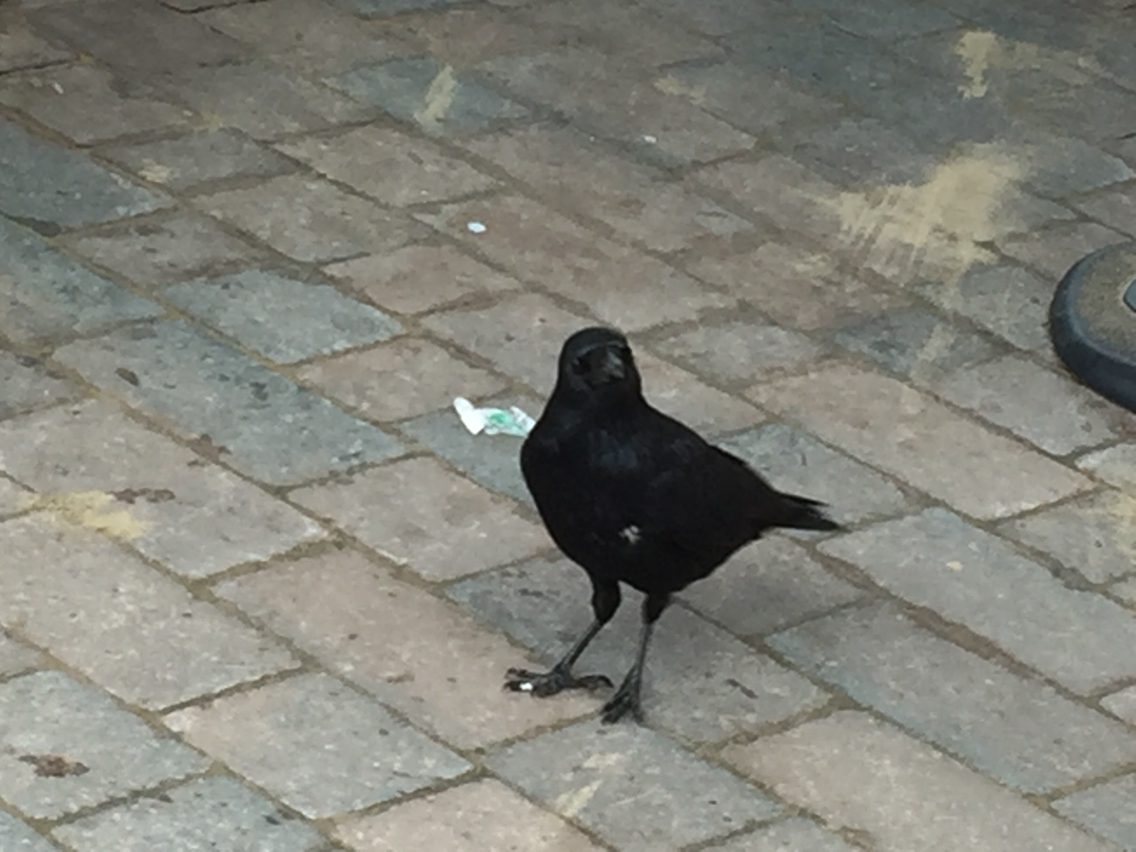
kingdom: Animalia
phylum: Chordata
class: Aves
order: Passeriformes
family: Corvidae
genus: Corvus
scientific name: Corvus corone
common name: Carrion crow
